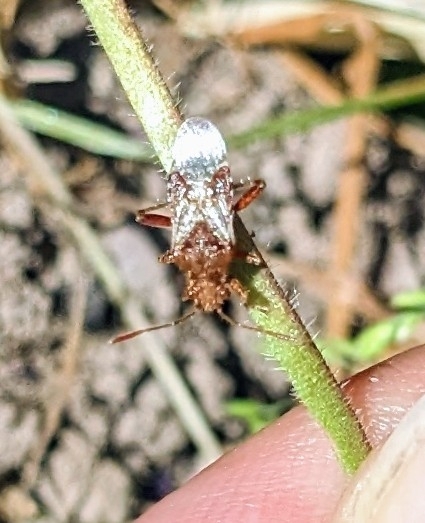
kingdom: Animalia
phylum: Arthropoda
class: Insecta
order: Hemiptera
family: Rhopalidae
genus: Rhopalus
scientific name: Rhopalus subrufus
